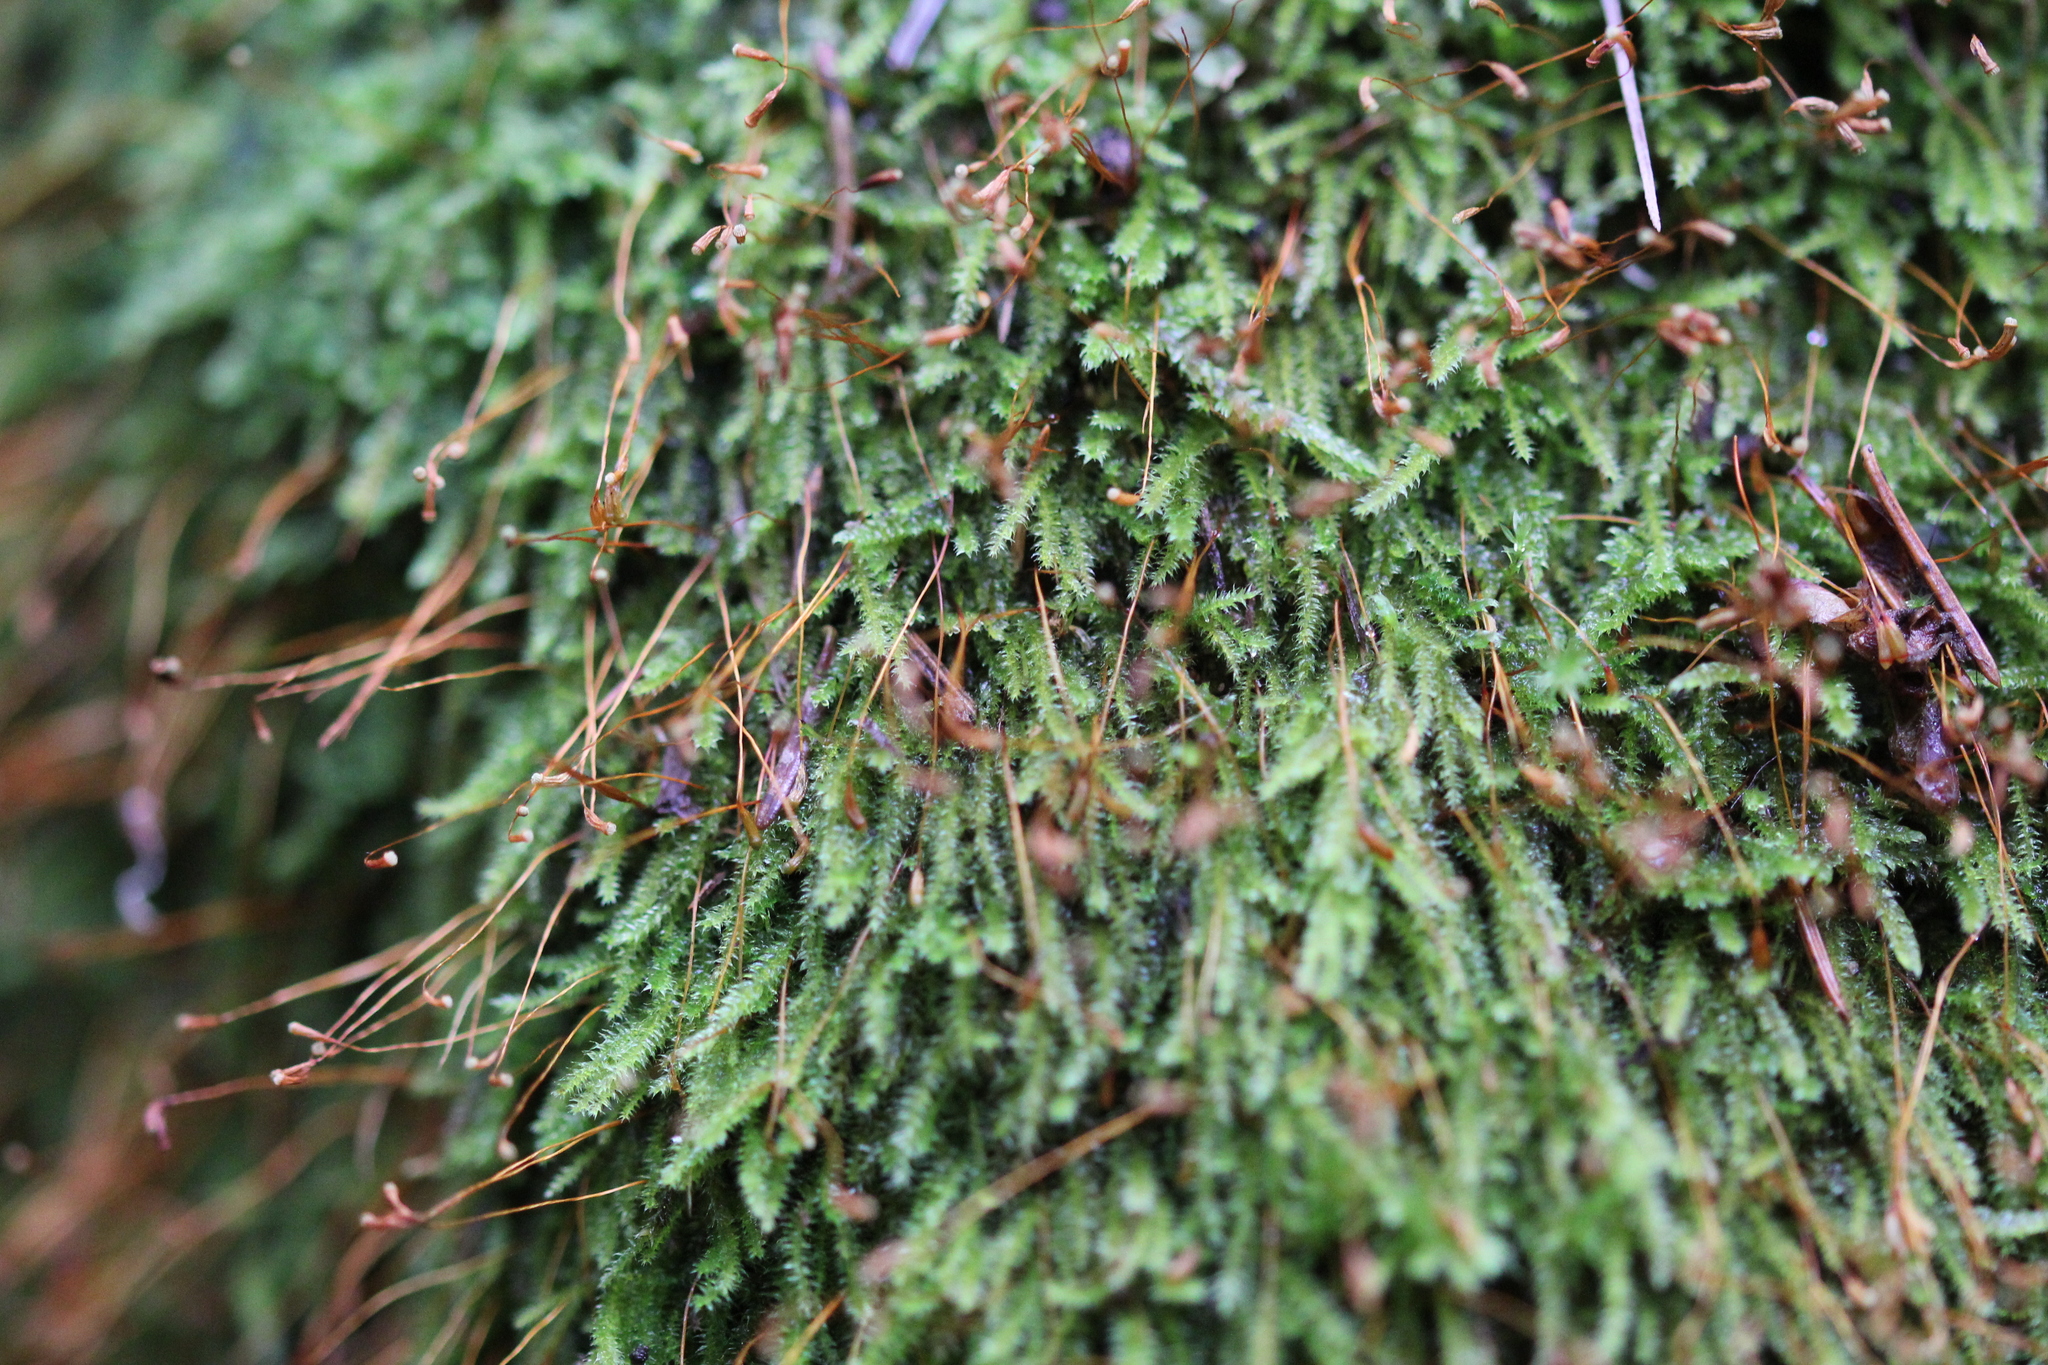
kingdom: Plantae
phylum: Bryophyta
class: Bryopsida
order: Hypnales
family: Plagiotheciaceae
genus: Herzogiella
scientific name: Herzogiella striatella
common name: Muhlenbeck's feather-moss
